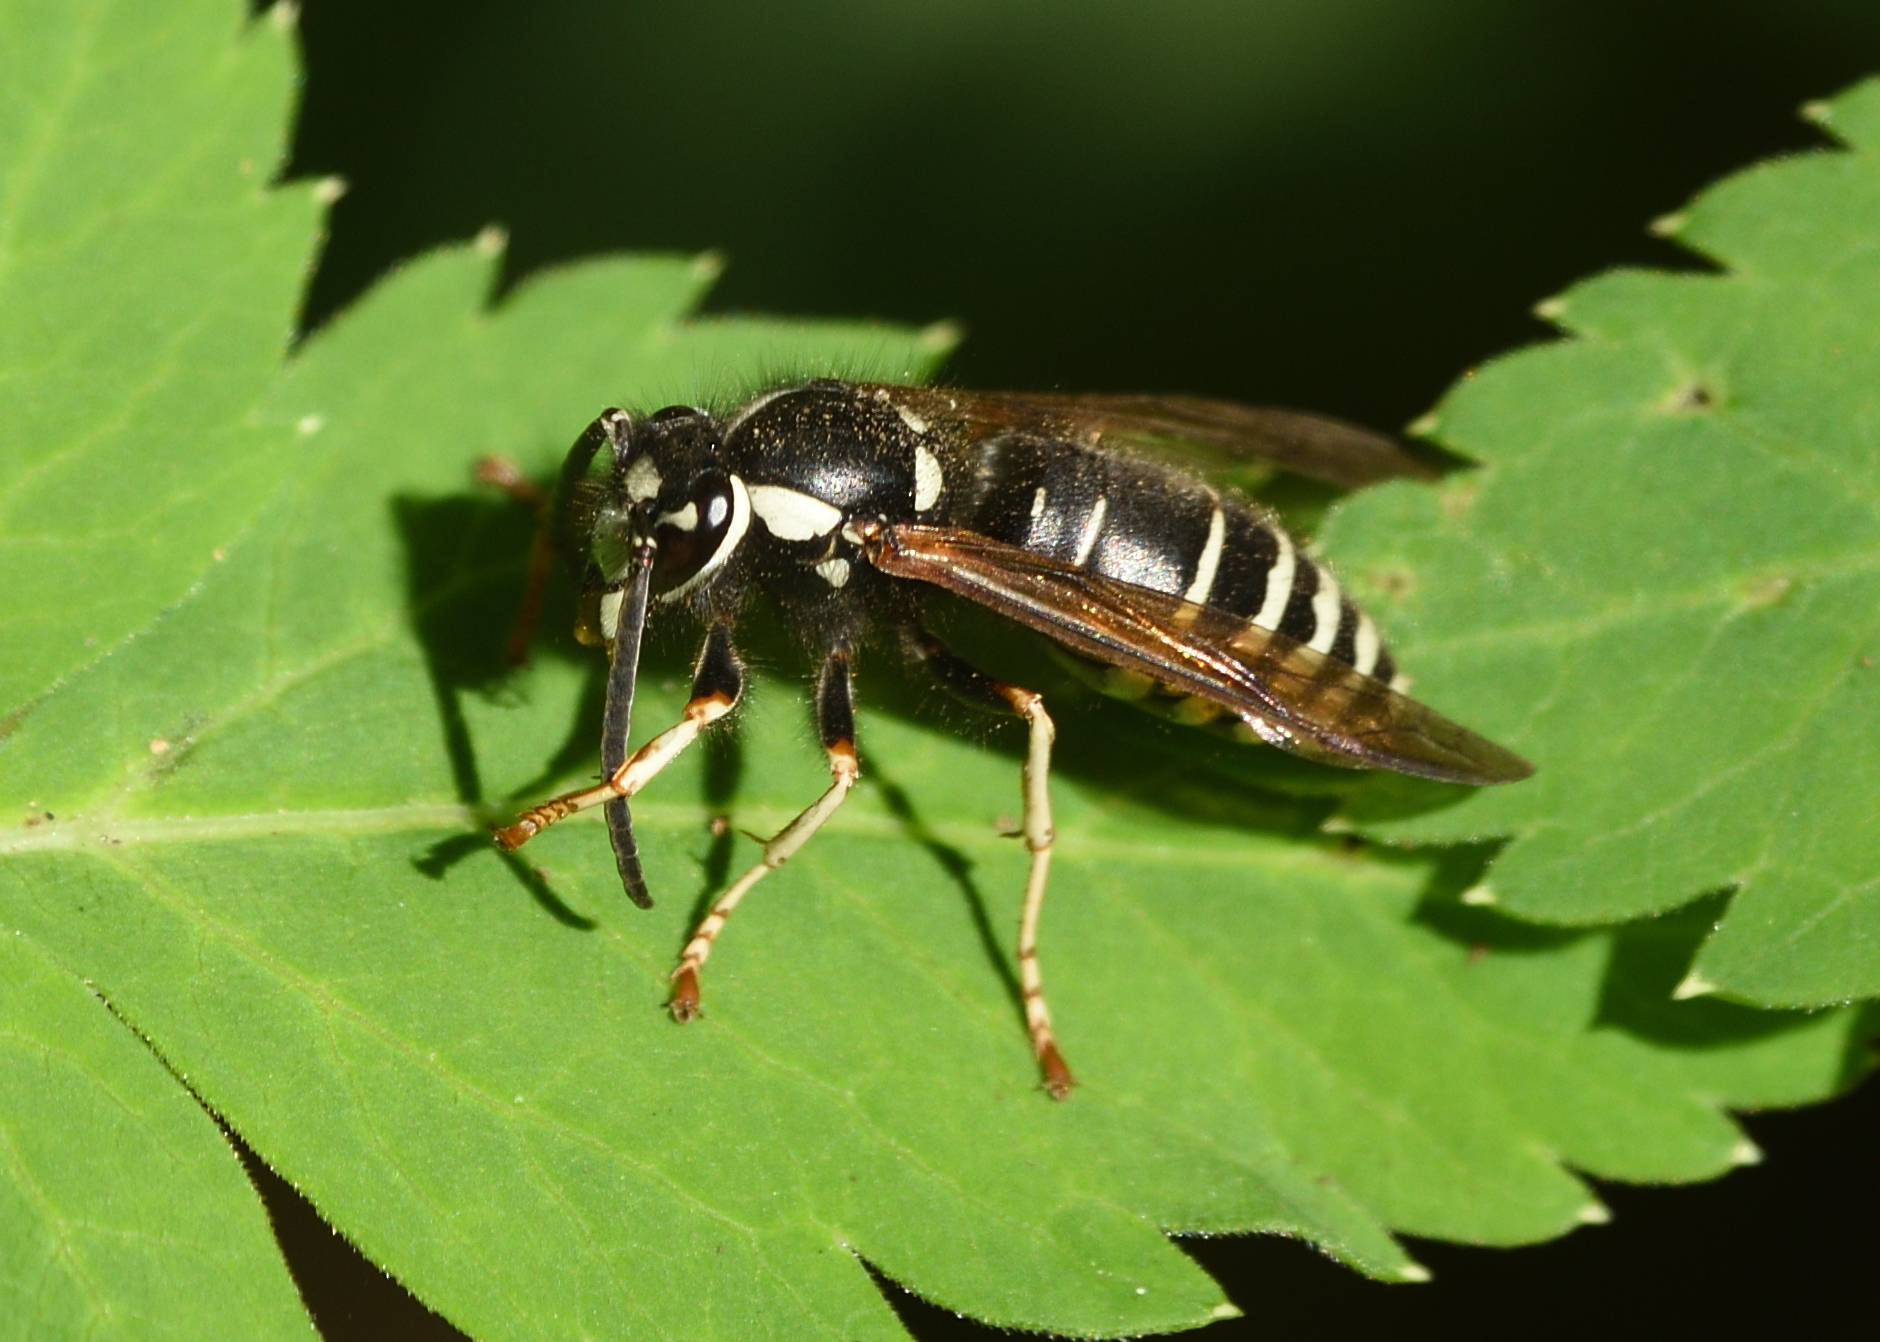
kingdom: Animalia
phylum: Arthropoda
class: Insecta
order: Hymenoptera
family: Vespidae
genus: Vespula
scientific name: Vespula consobrina
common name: Blackjacket
